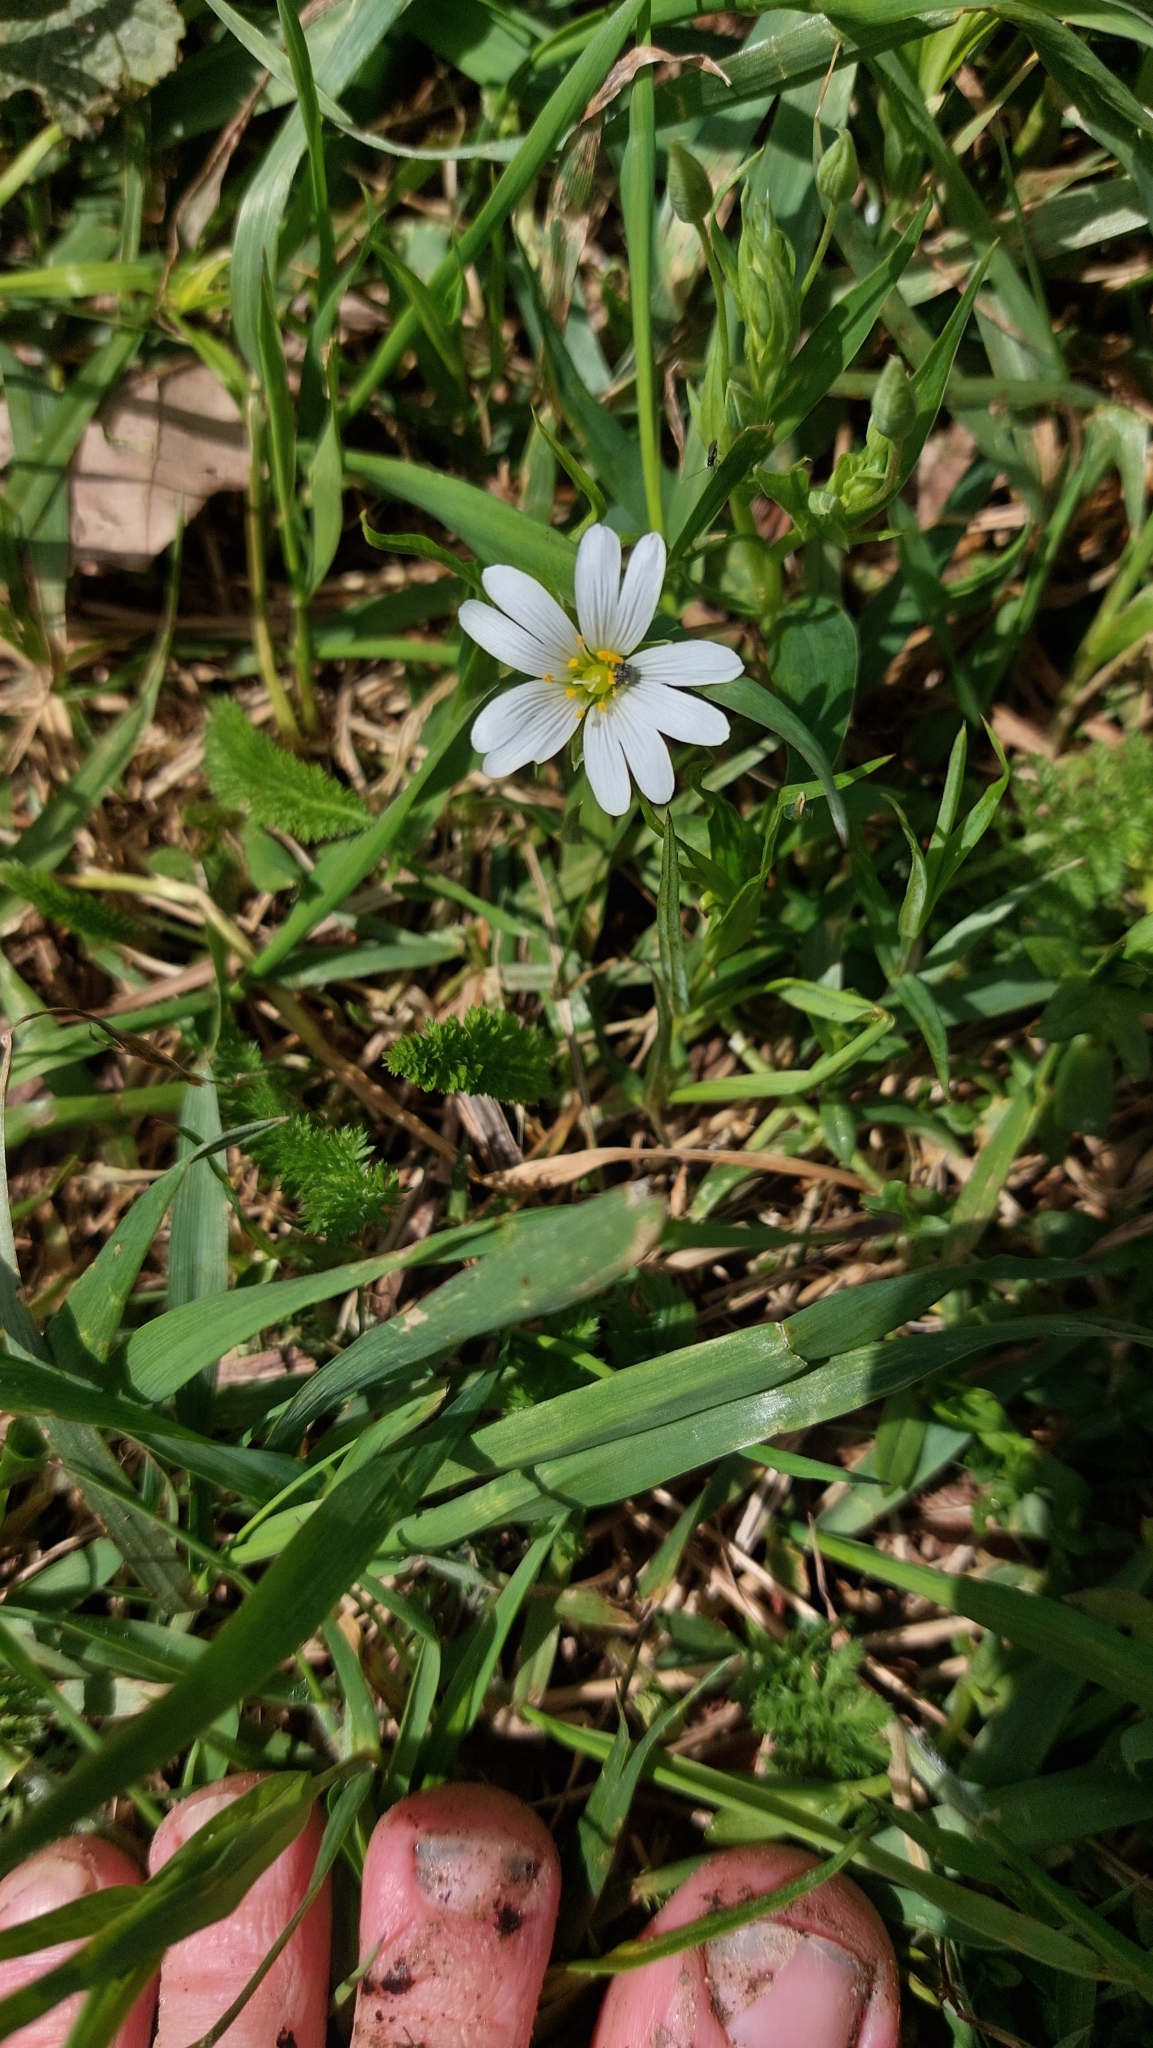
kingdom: Plantae
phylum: Tracheophyta
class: Magnoliopsida
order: Caryophyllales
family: Caryophyllaceae
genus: Rabelera
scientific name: Rabelera holostea
